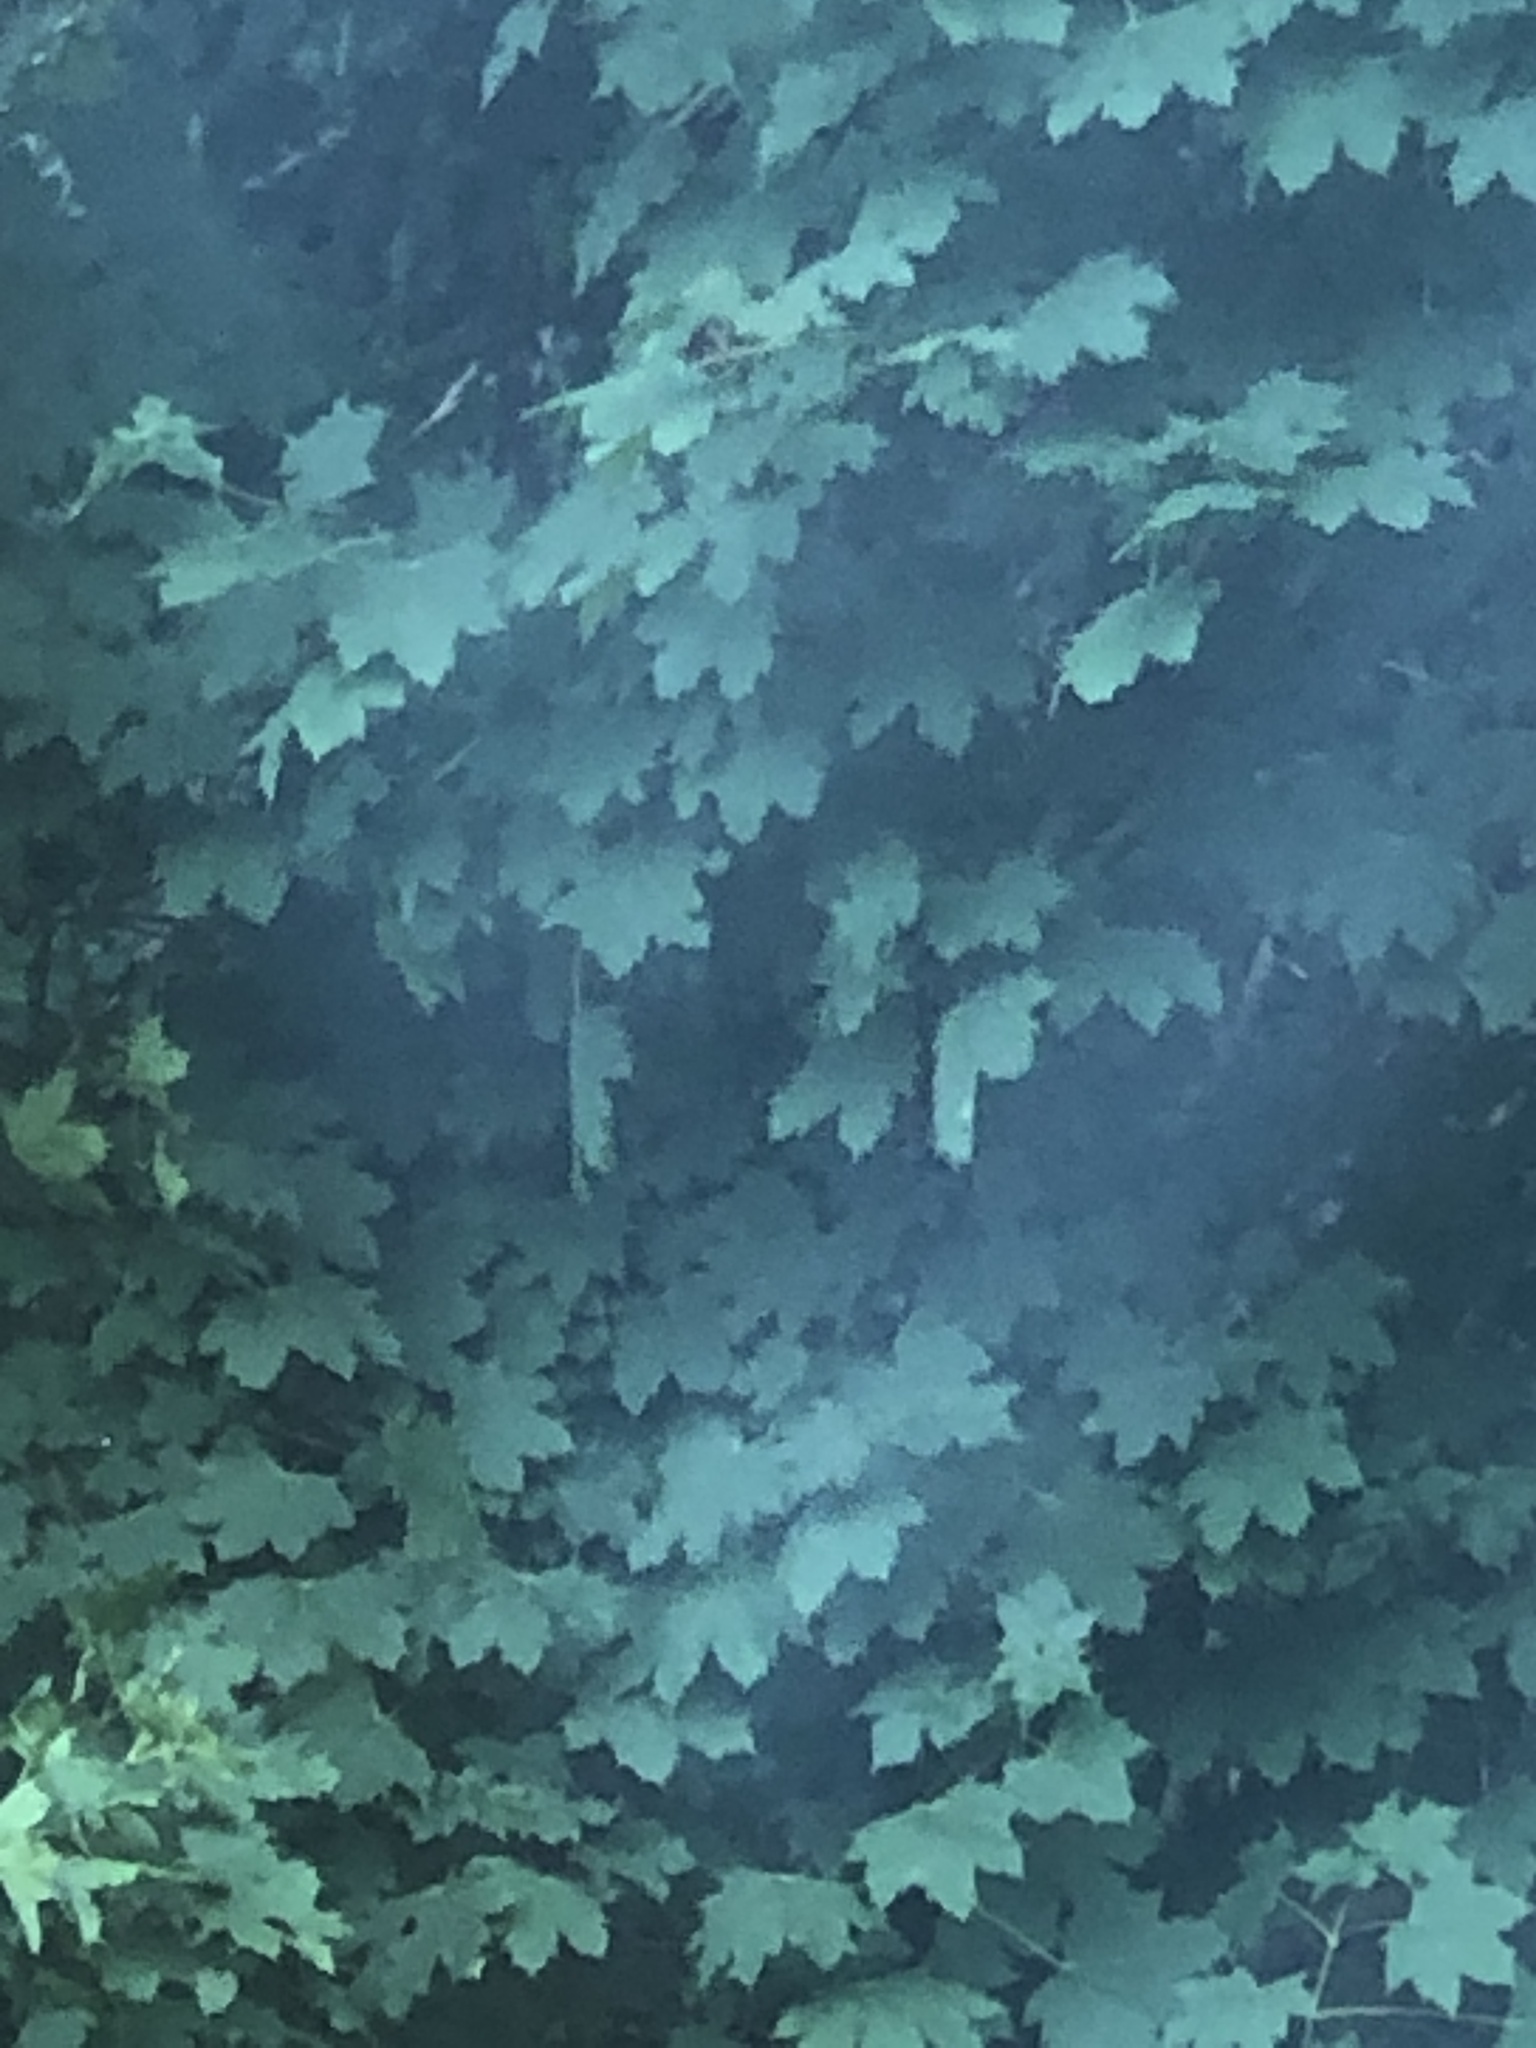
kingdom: Plantae
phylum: Tracheophyta
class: Magnoliopsida
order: Sapindales
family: Sapindaceae
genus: Acer
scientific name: Acer platanoides
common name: Norway maple
